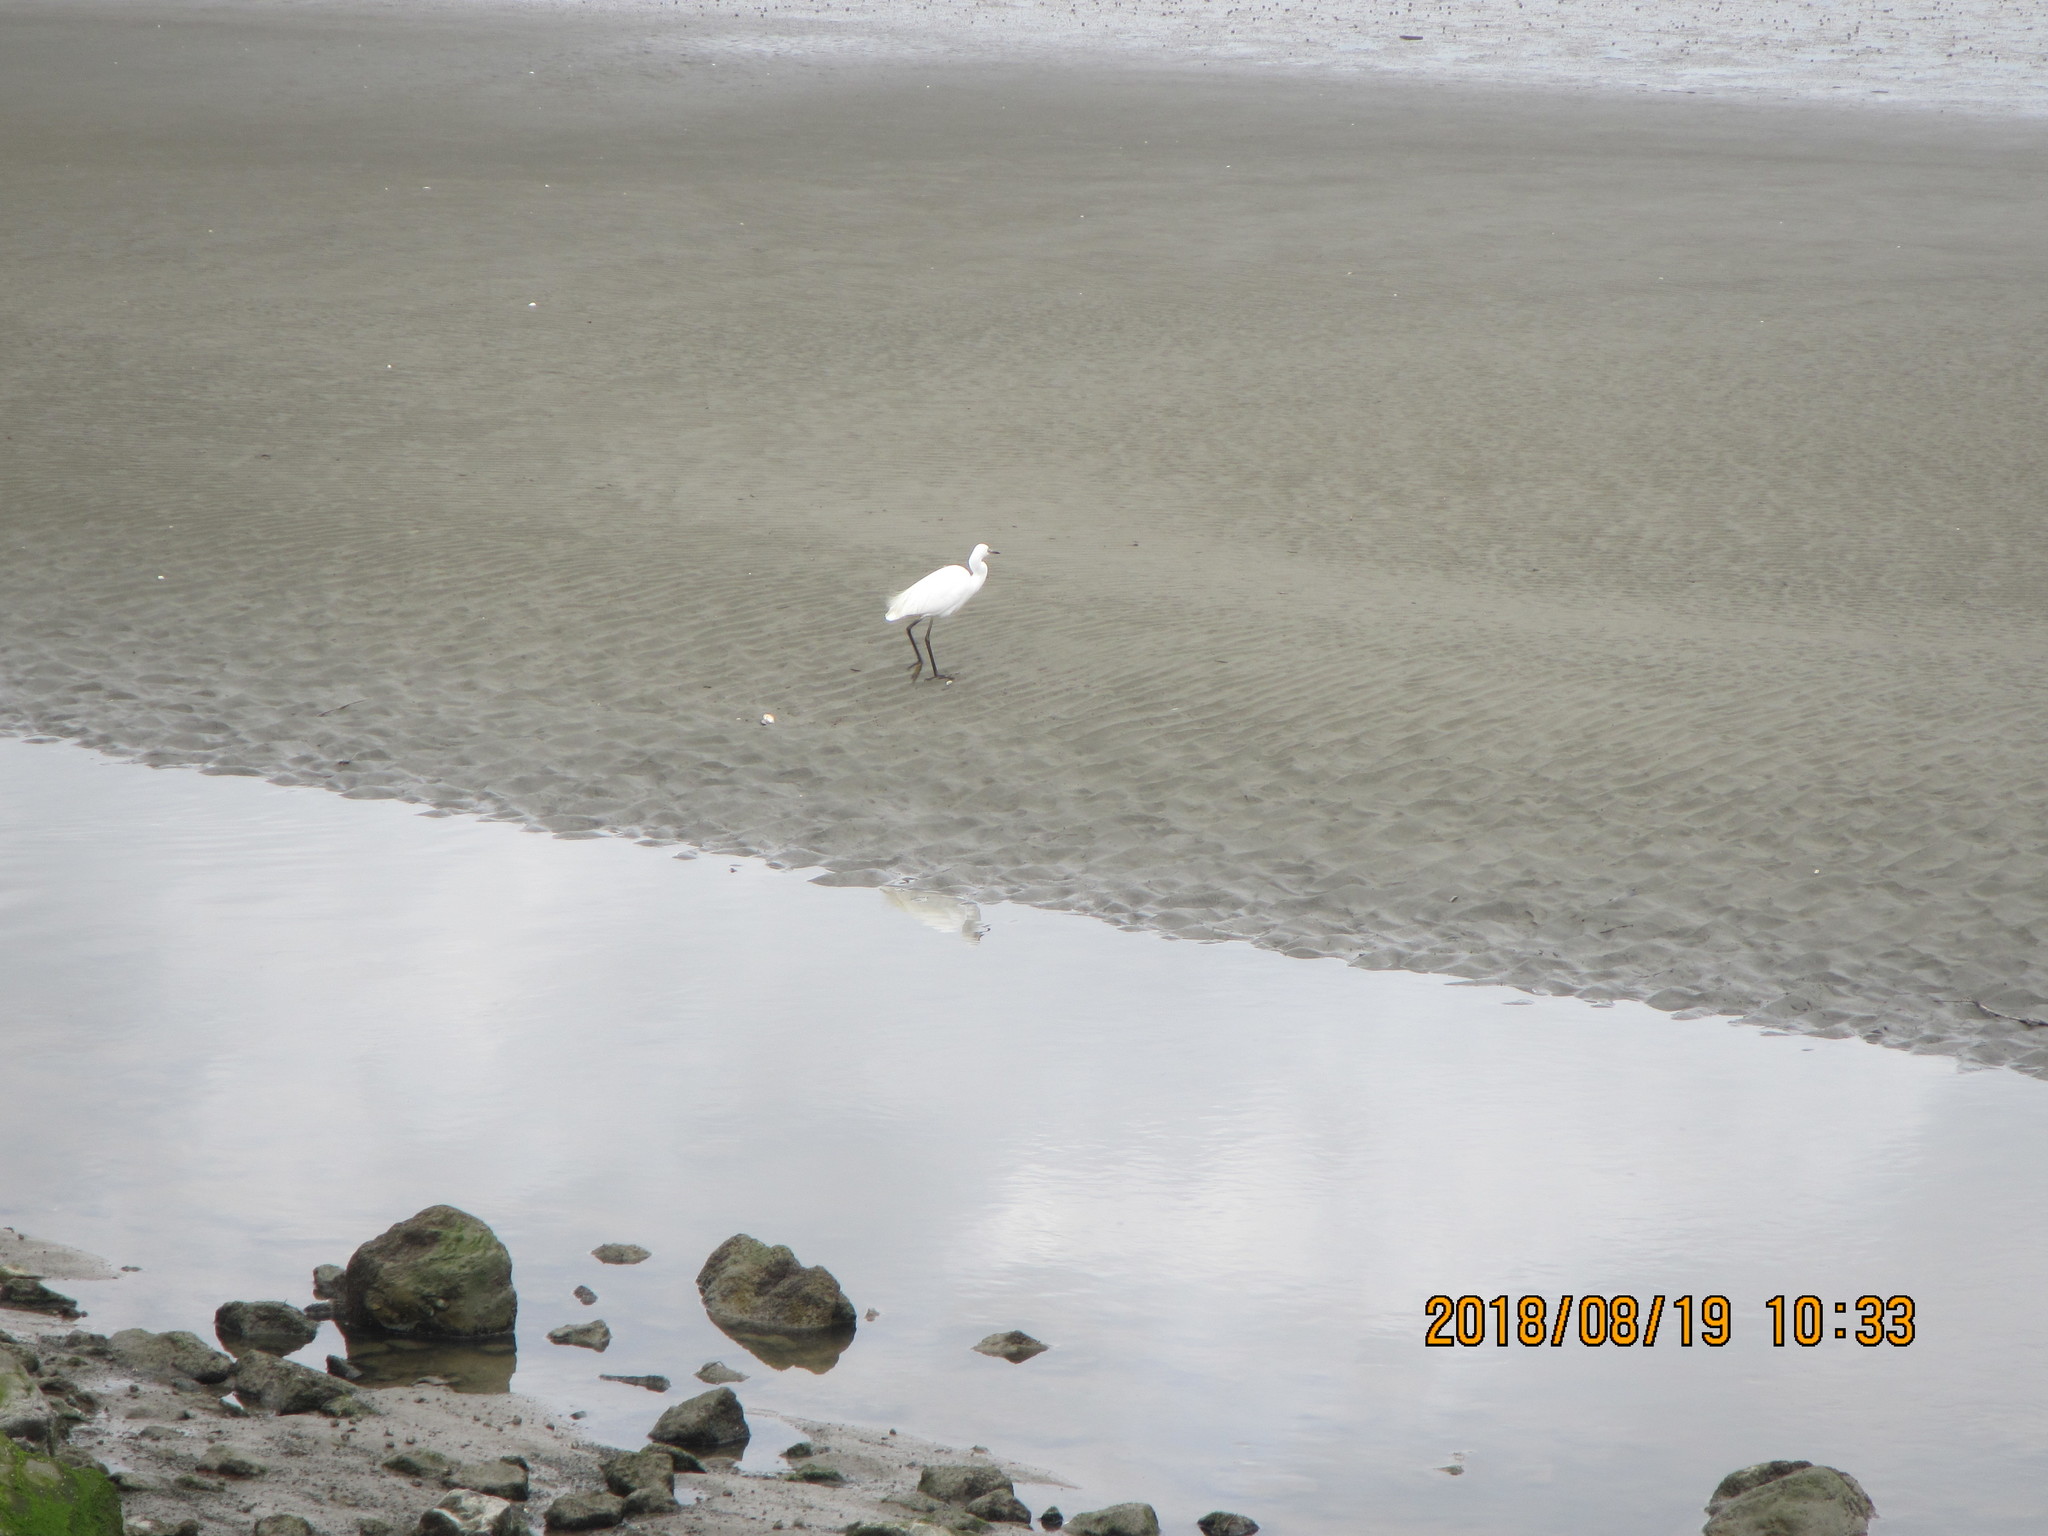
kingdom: Animalia
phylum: Chordata
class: Aves
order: Pelecaniformes
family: Ardeidae
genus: Egretta
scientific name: Egretta garzetta
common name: Little egret
